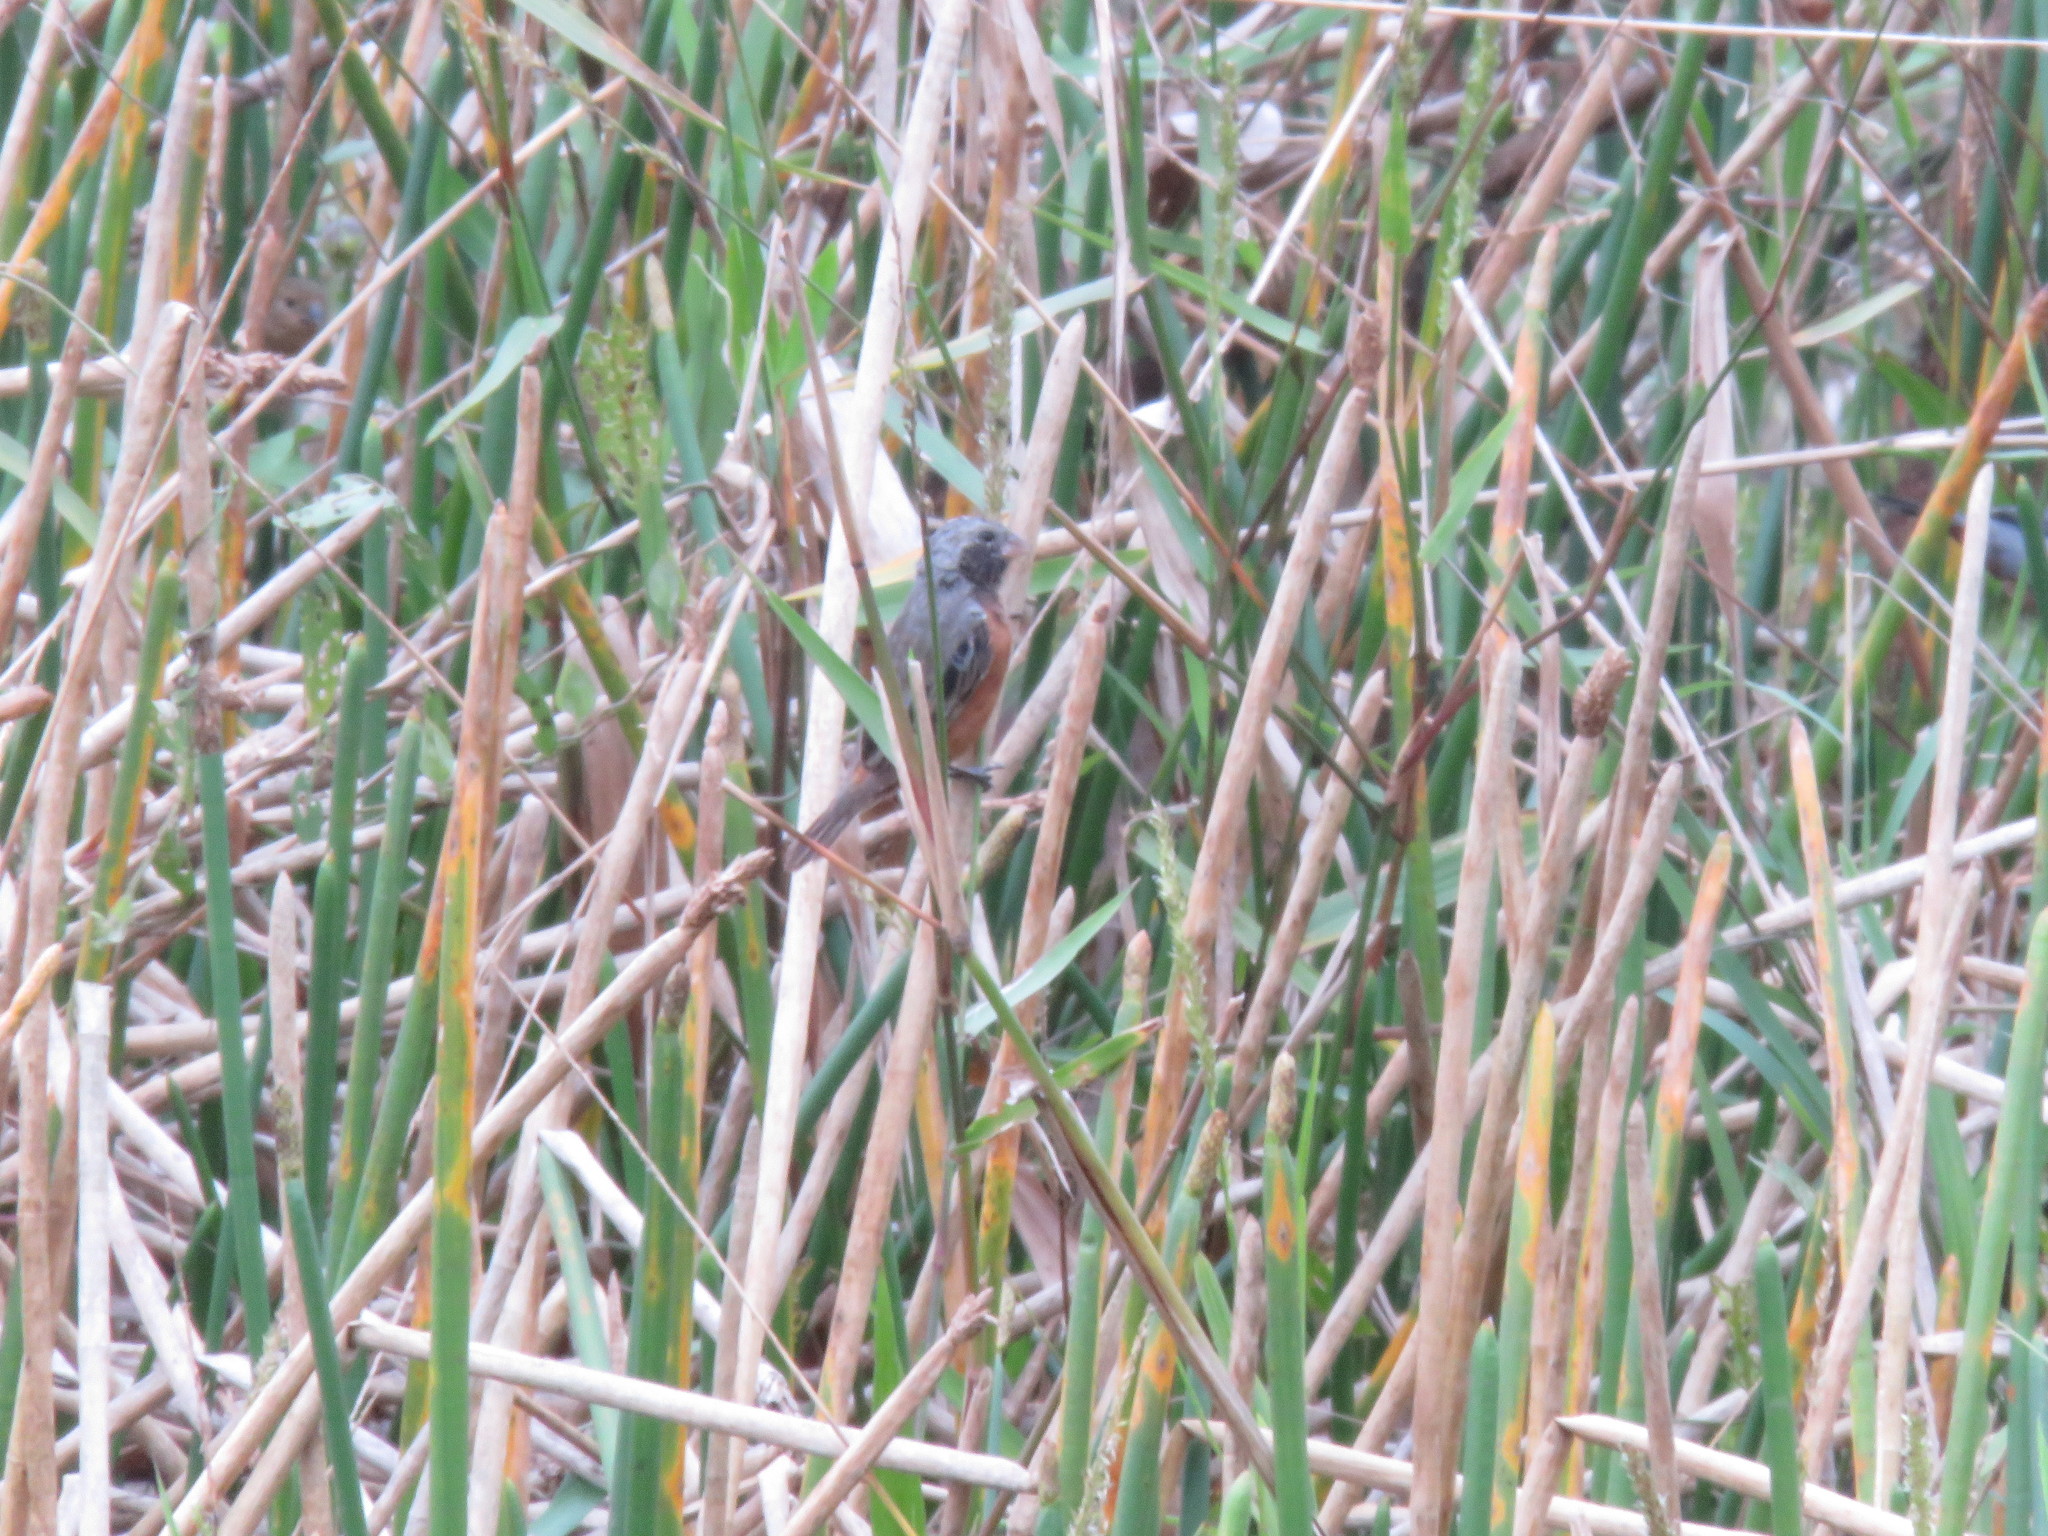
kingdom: Animalia
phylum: Chordata
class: Aves
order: Passeriformes
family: Thraupidae
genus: Sporophila
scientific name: Sporophila ruficollis
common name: Dark-throated seedeater
